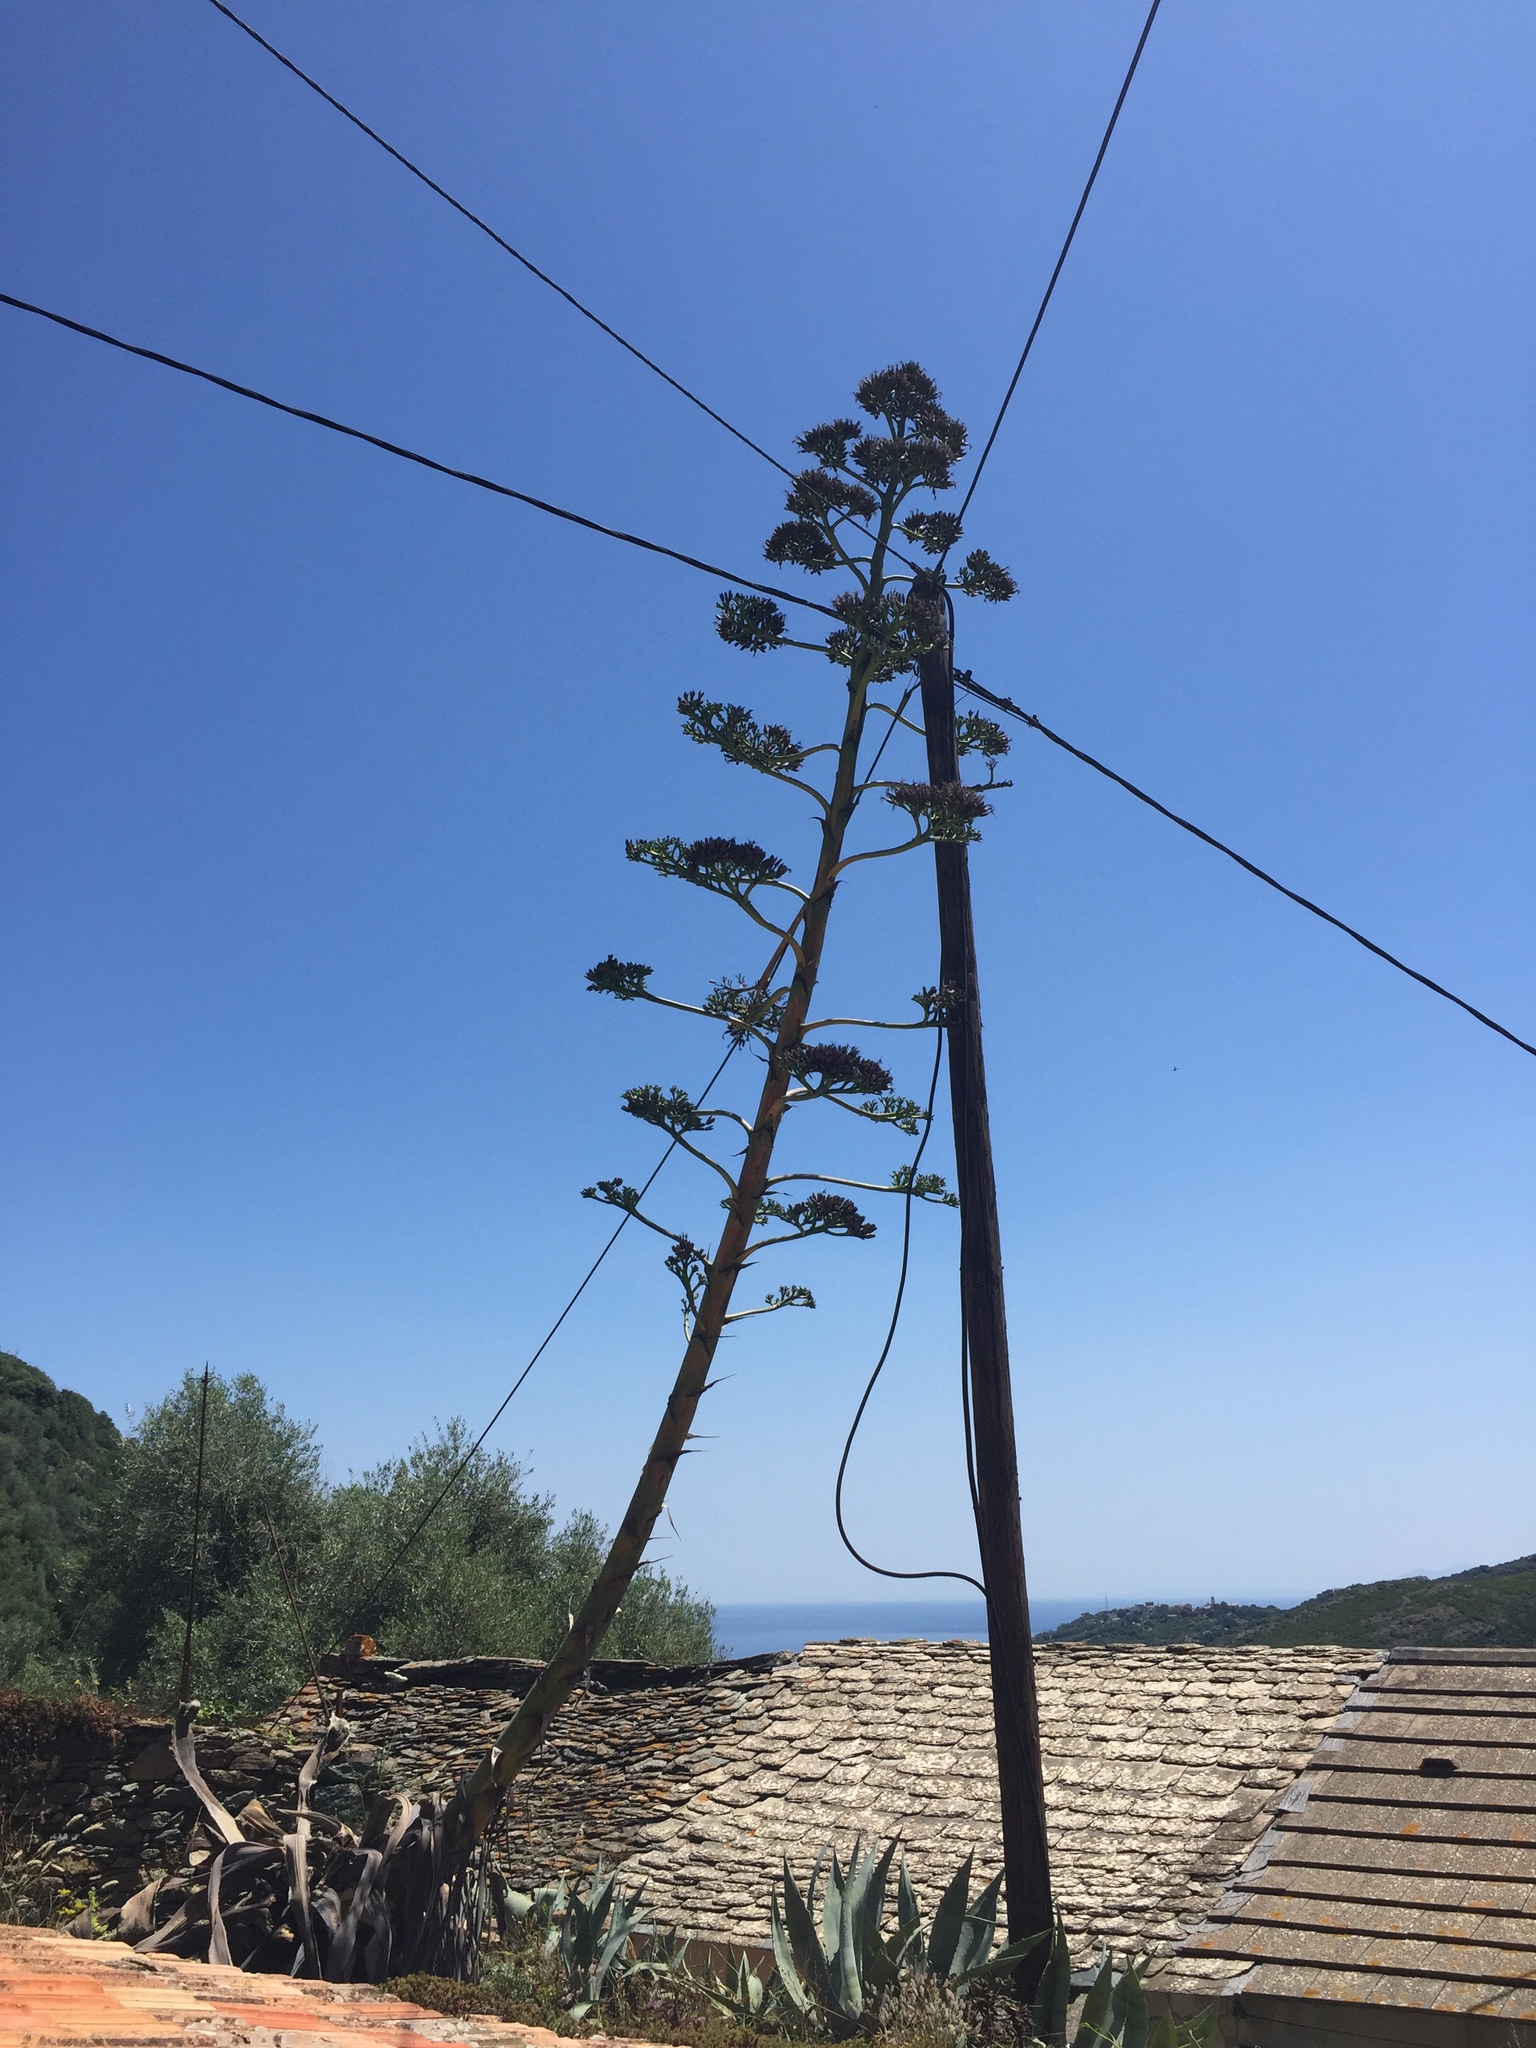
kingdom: Plantae
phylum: Tracheophyta
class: Liliopsida
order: Asparagales
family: Asparagaceae
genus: Agave
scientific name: Agave americana
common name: Centuryplant
